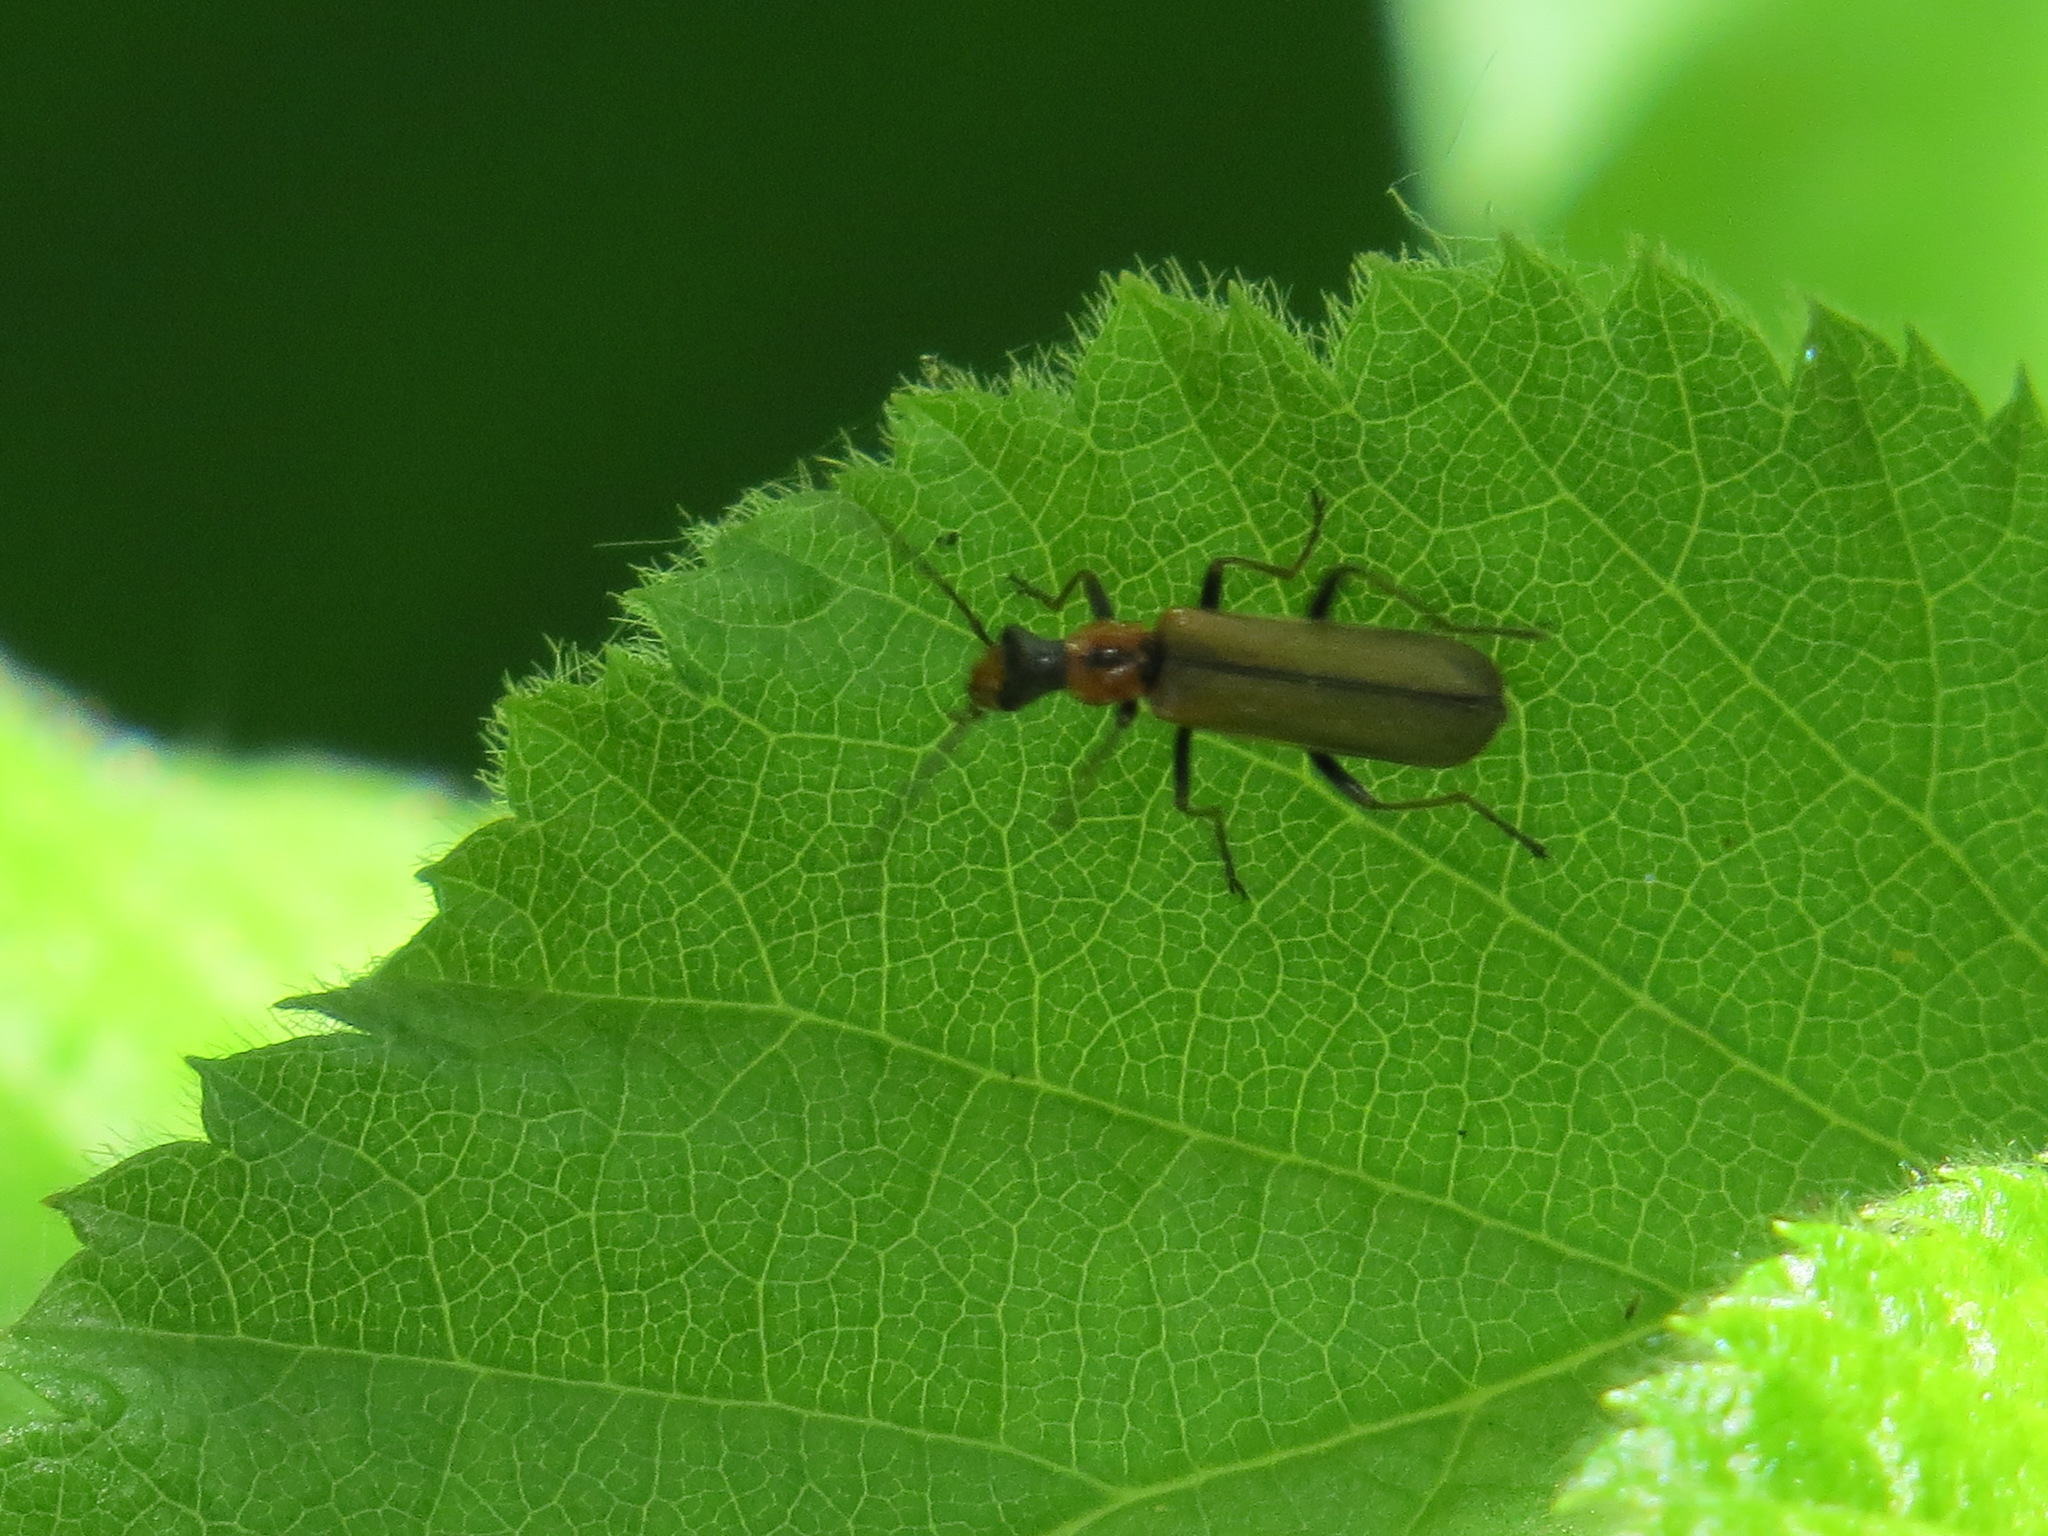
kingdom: Animalia
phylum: Arthropoda
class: Insecta
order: Coleoptera
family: Cantharidae
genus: Dichelotarsus
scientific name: Dichelotarsus cavicollis
